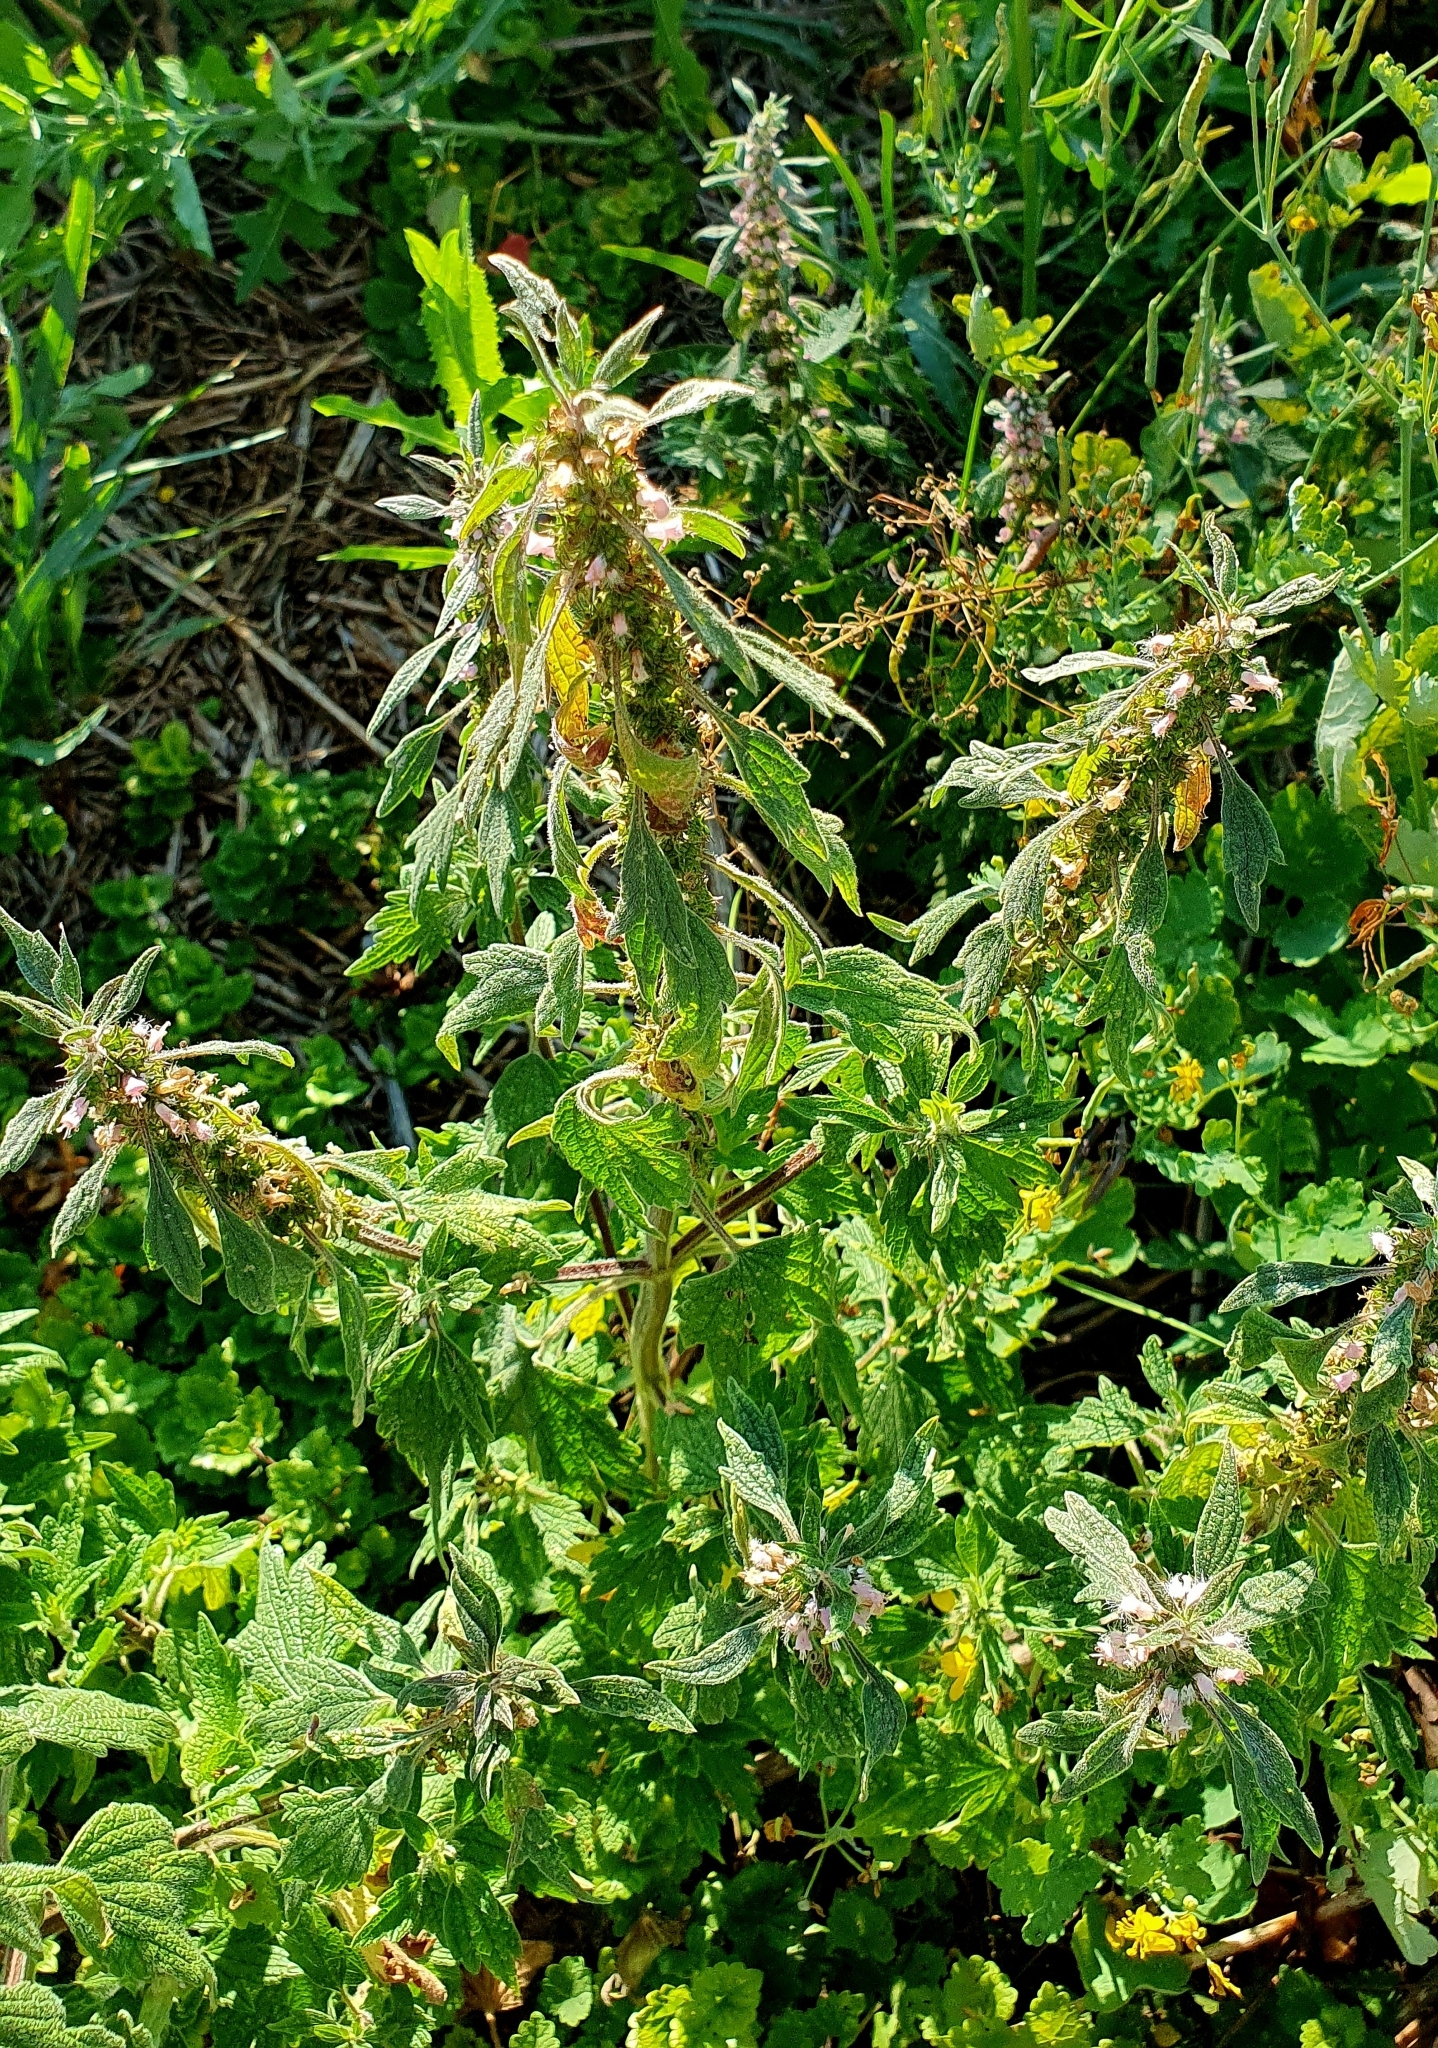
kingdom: Plantae
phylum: Tracheophyta
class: Magnoliopsida
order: Lamiales
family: Lamiaceae
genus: Leonurus
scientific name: Leonurus quinquelobatus
